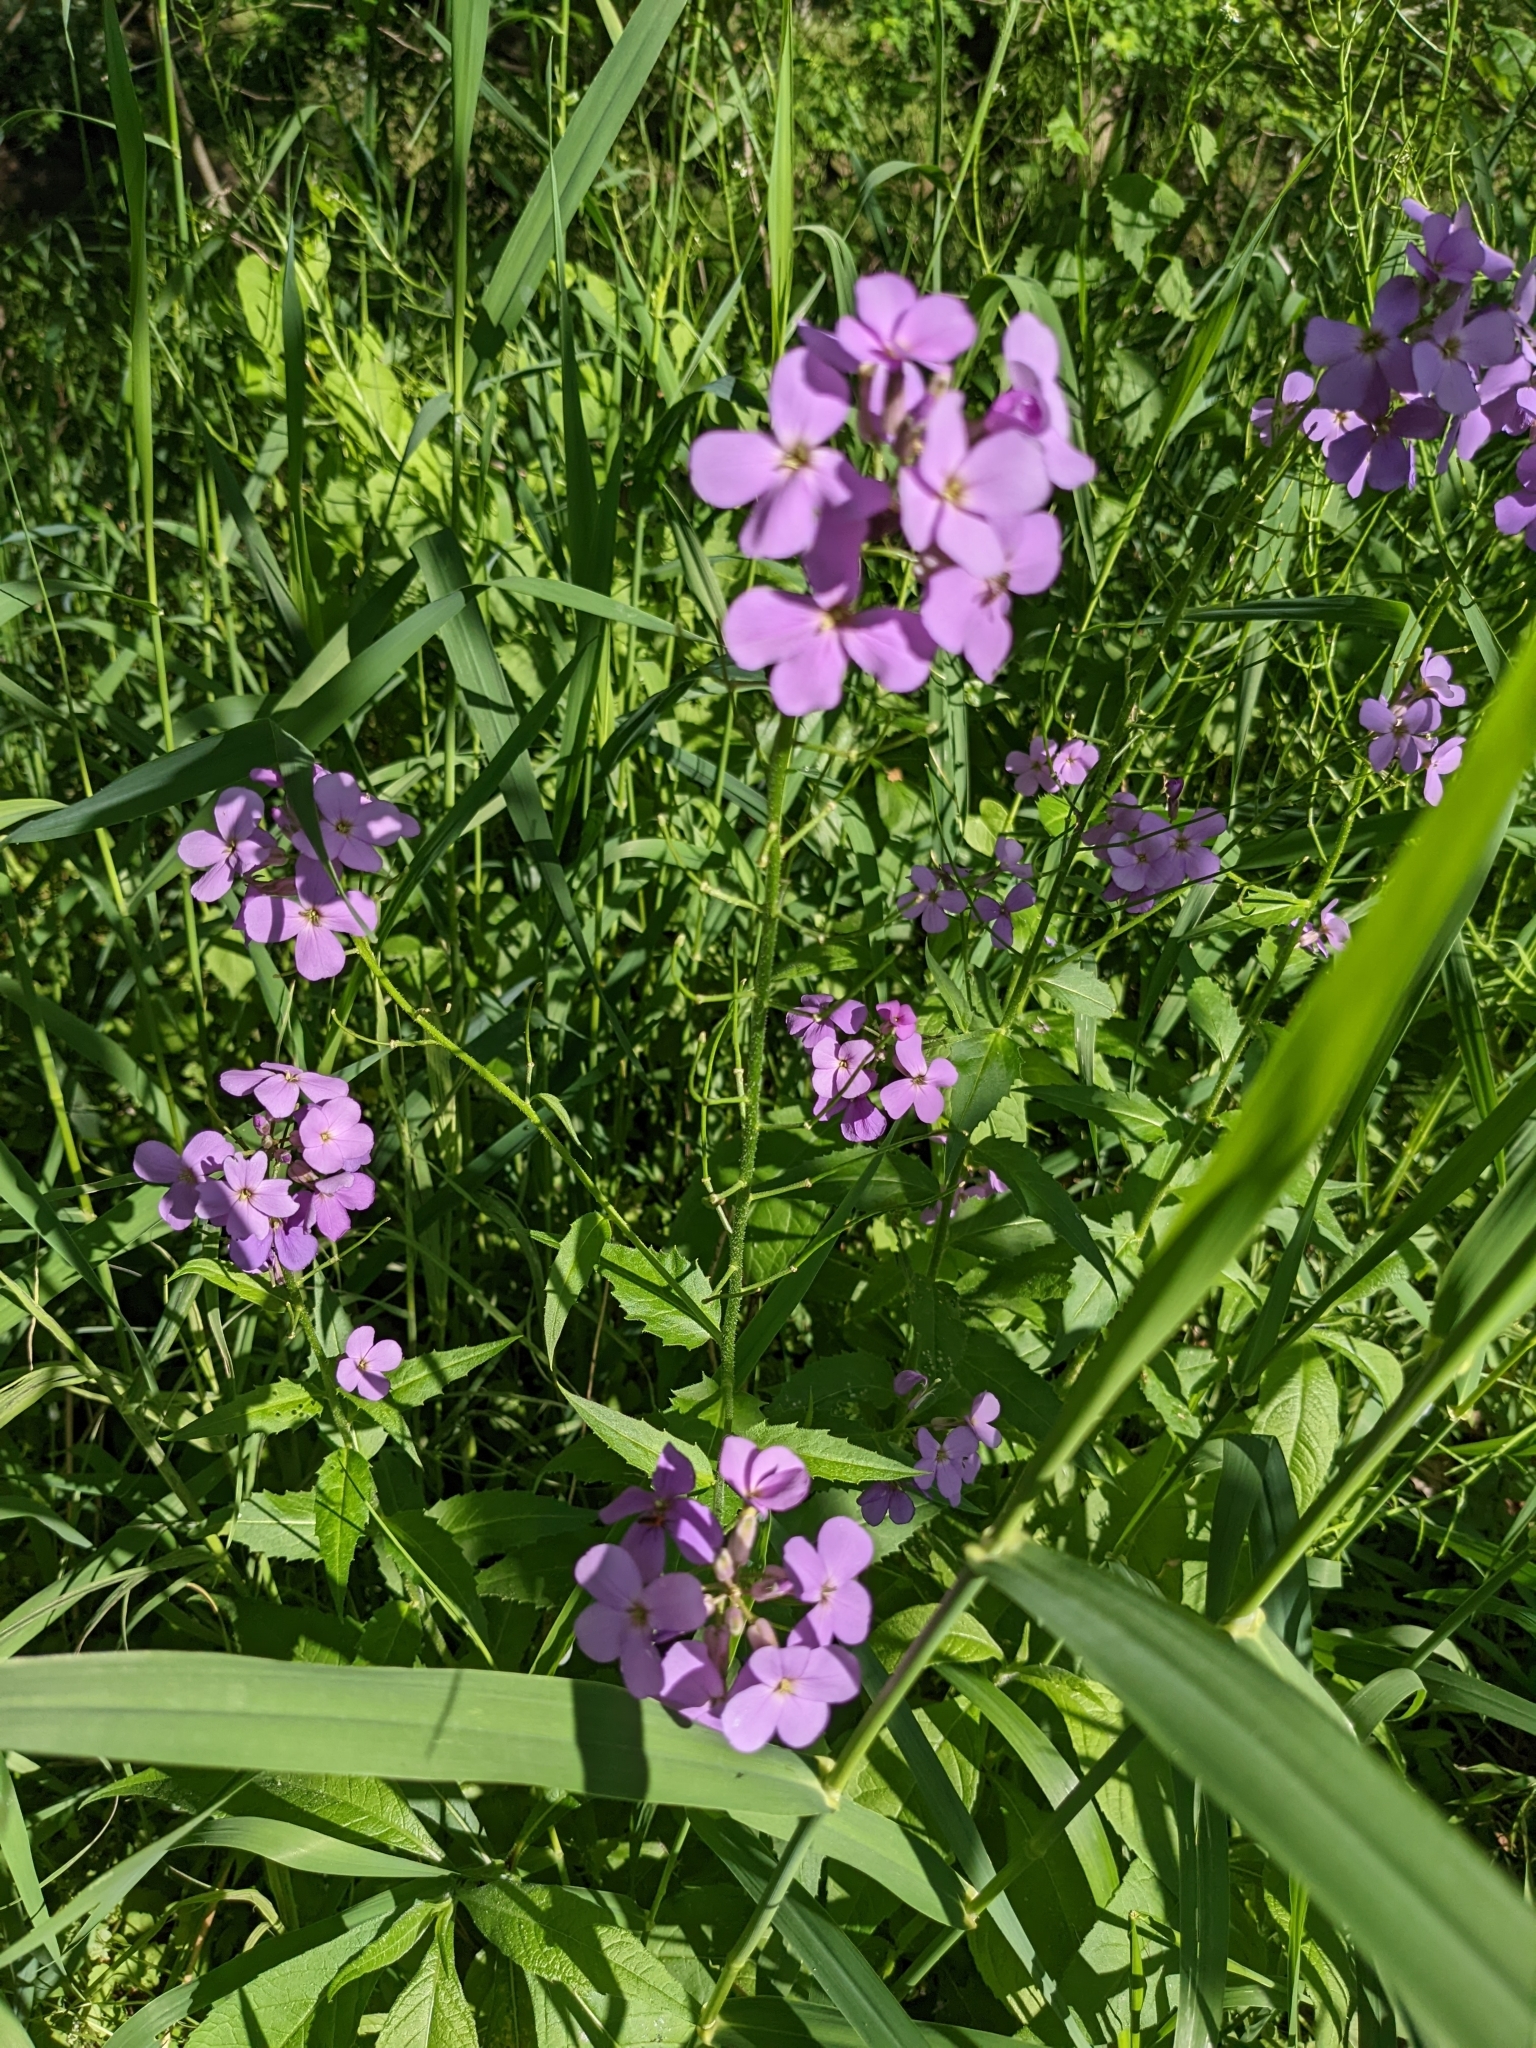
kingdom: Plantae
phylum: Tracheophyta
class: Magnoliopsida
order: Brassicales
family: Brassicaceae
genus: Hesperis
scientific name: Hesperis matronalis
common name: Dame's-violet
